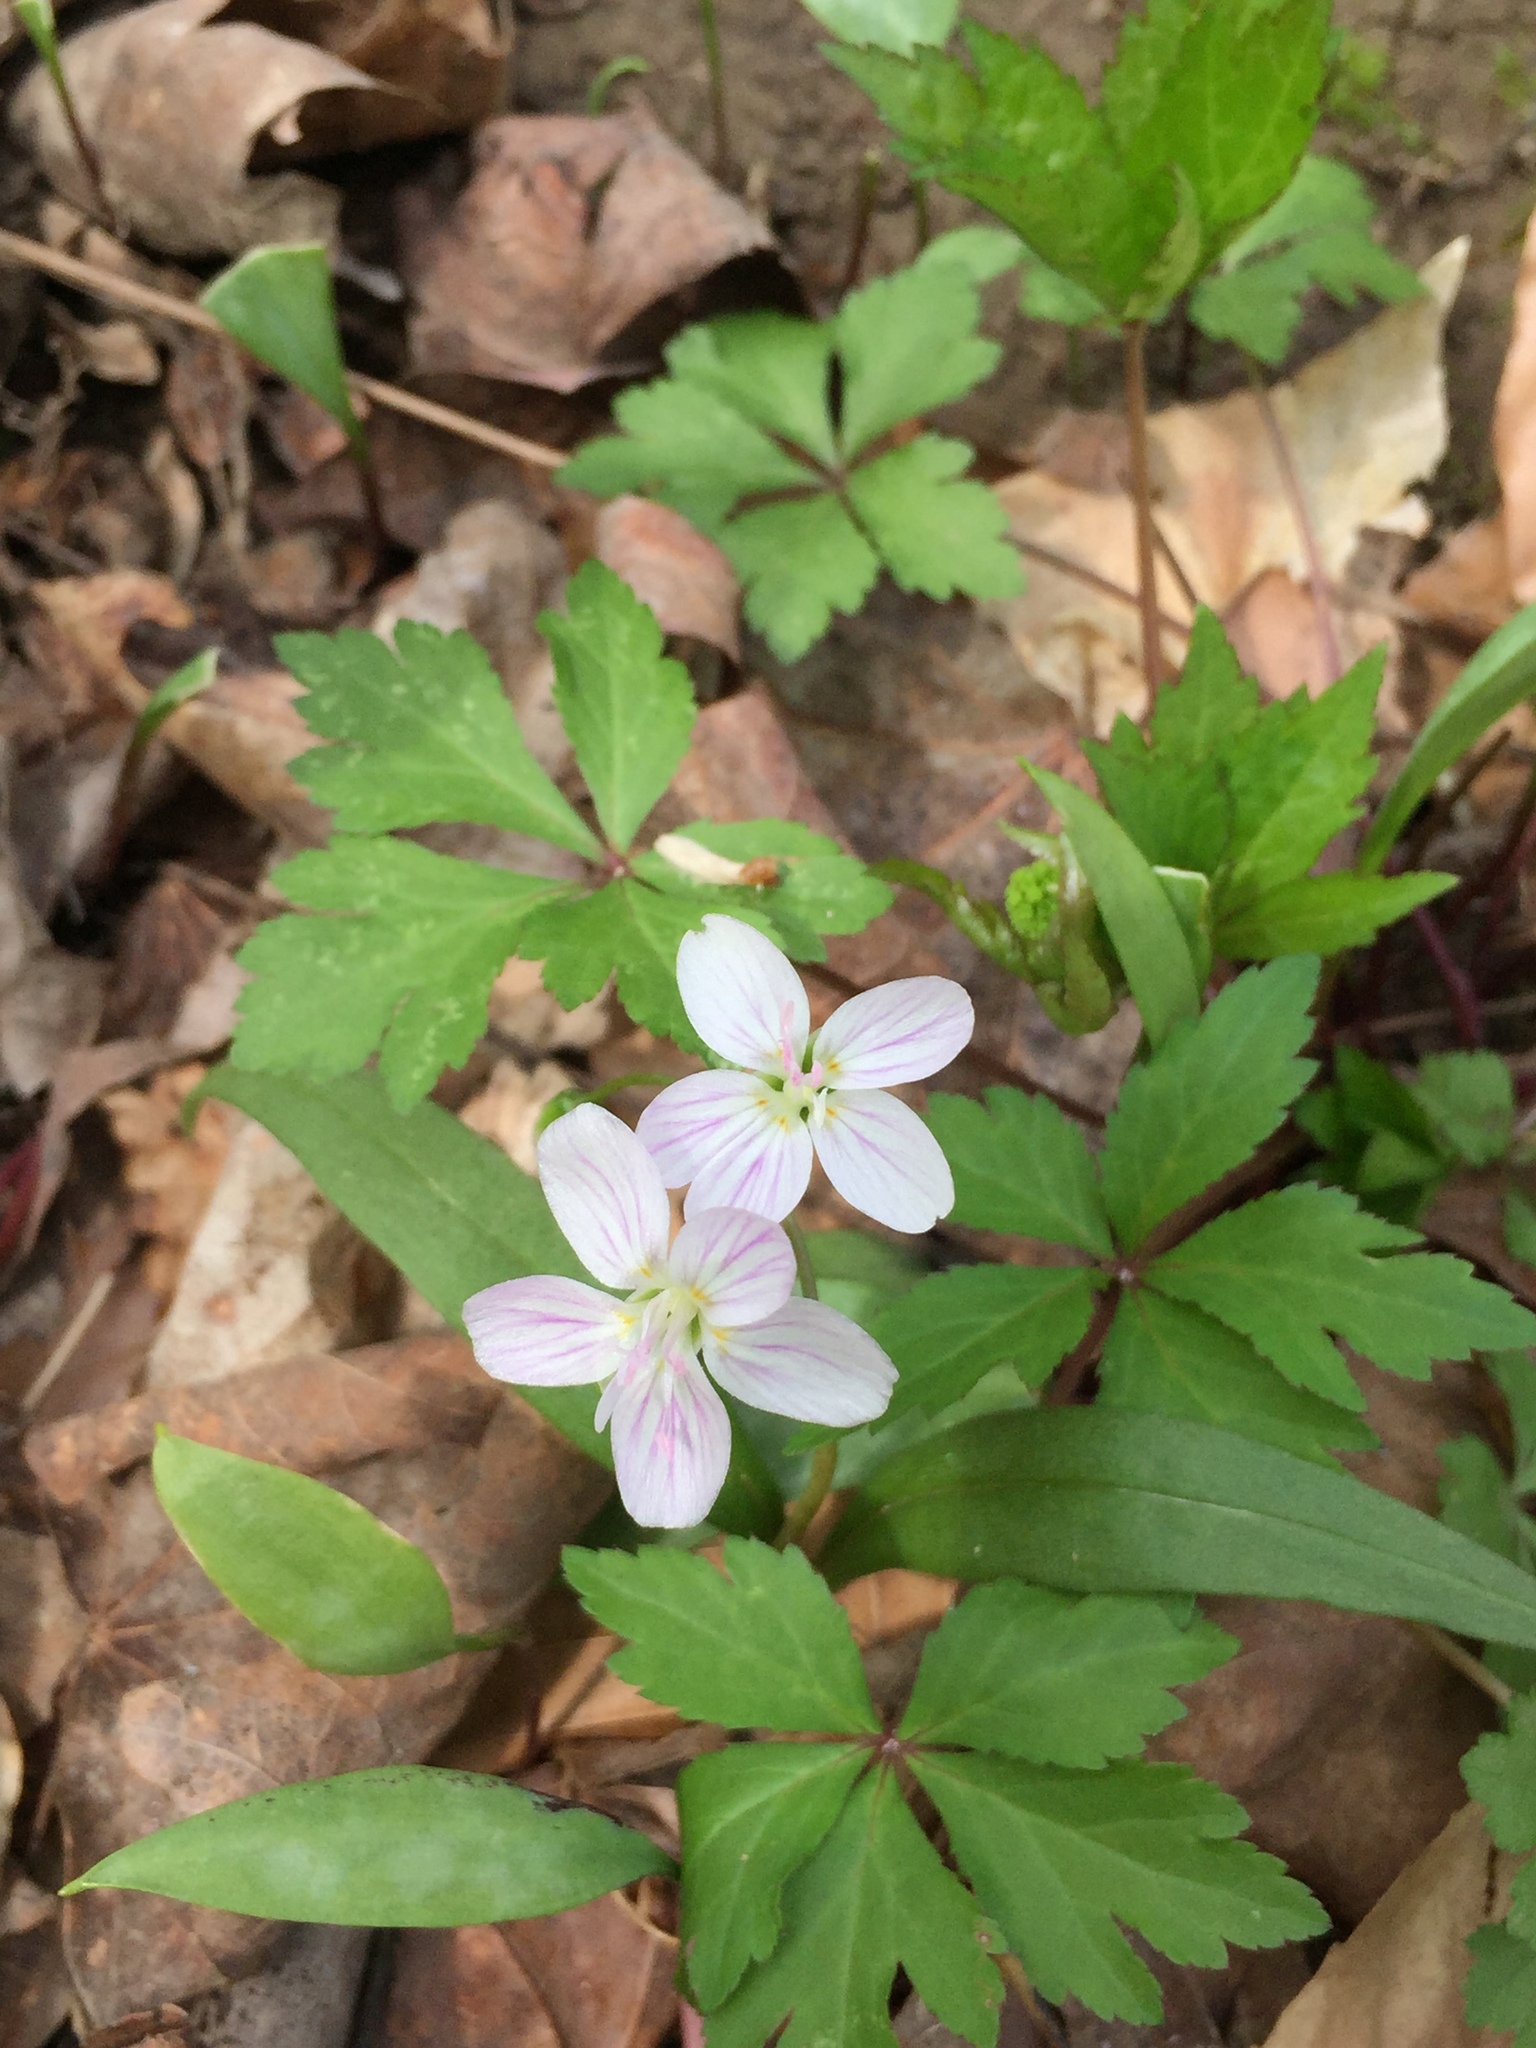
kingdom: Plantae
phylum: Tracheophyta
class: Magnoliopsida
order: Caryophyllales
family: Montiaceae
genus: Claytonia
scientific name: Claytonia virginica
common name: Virginia springbeauty
